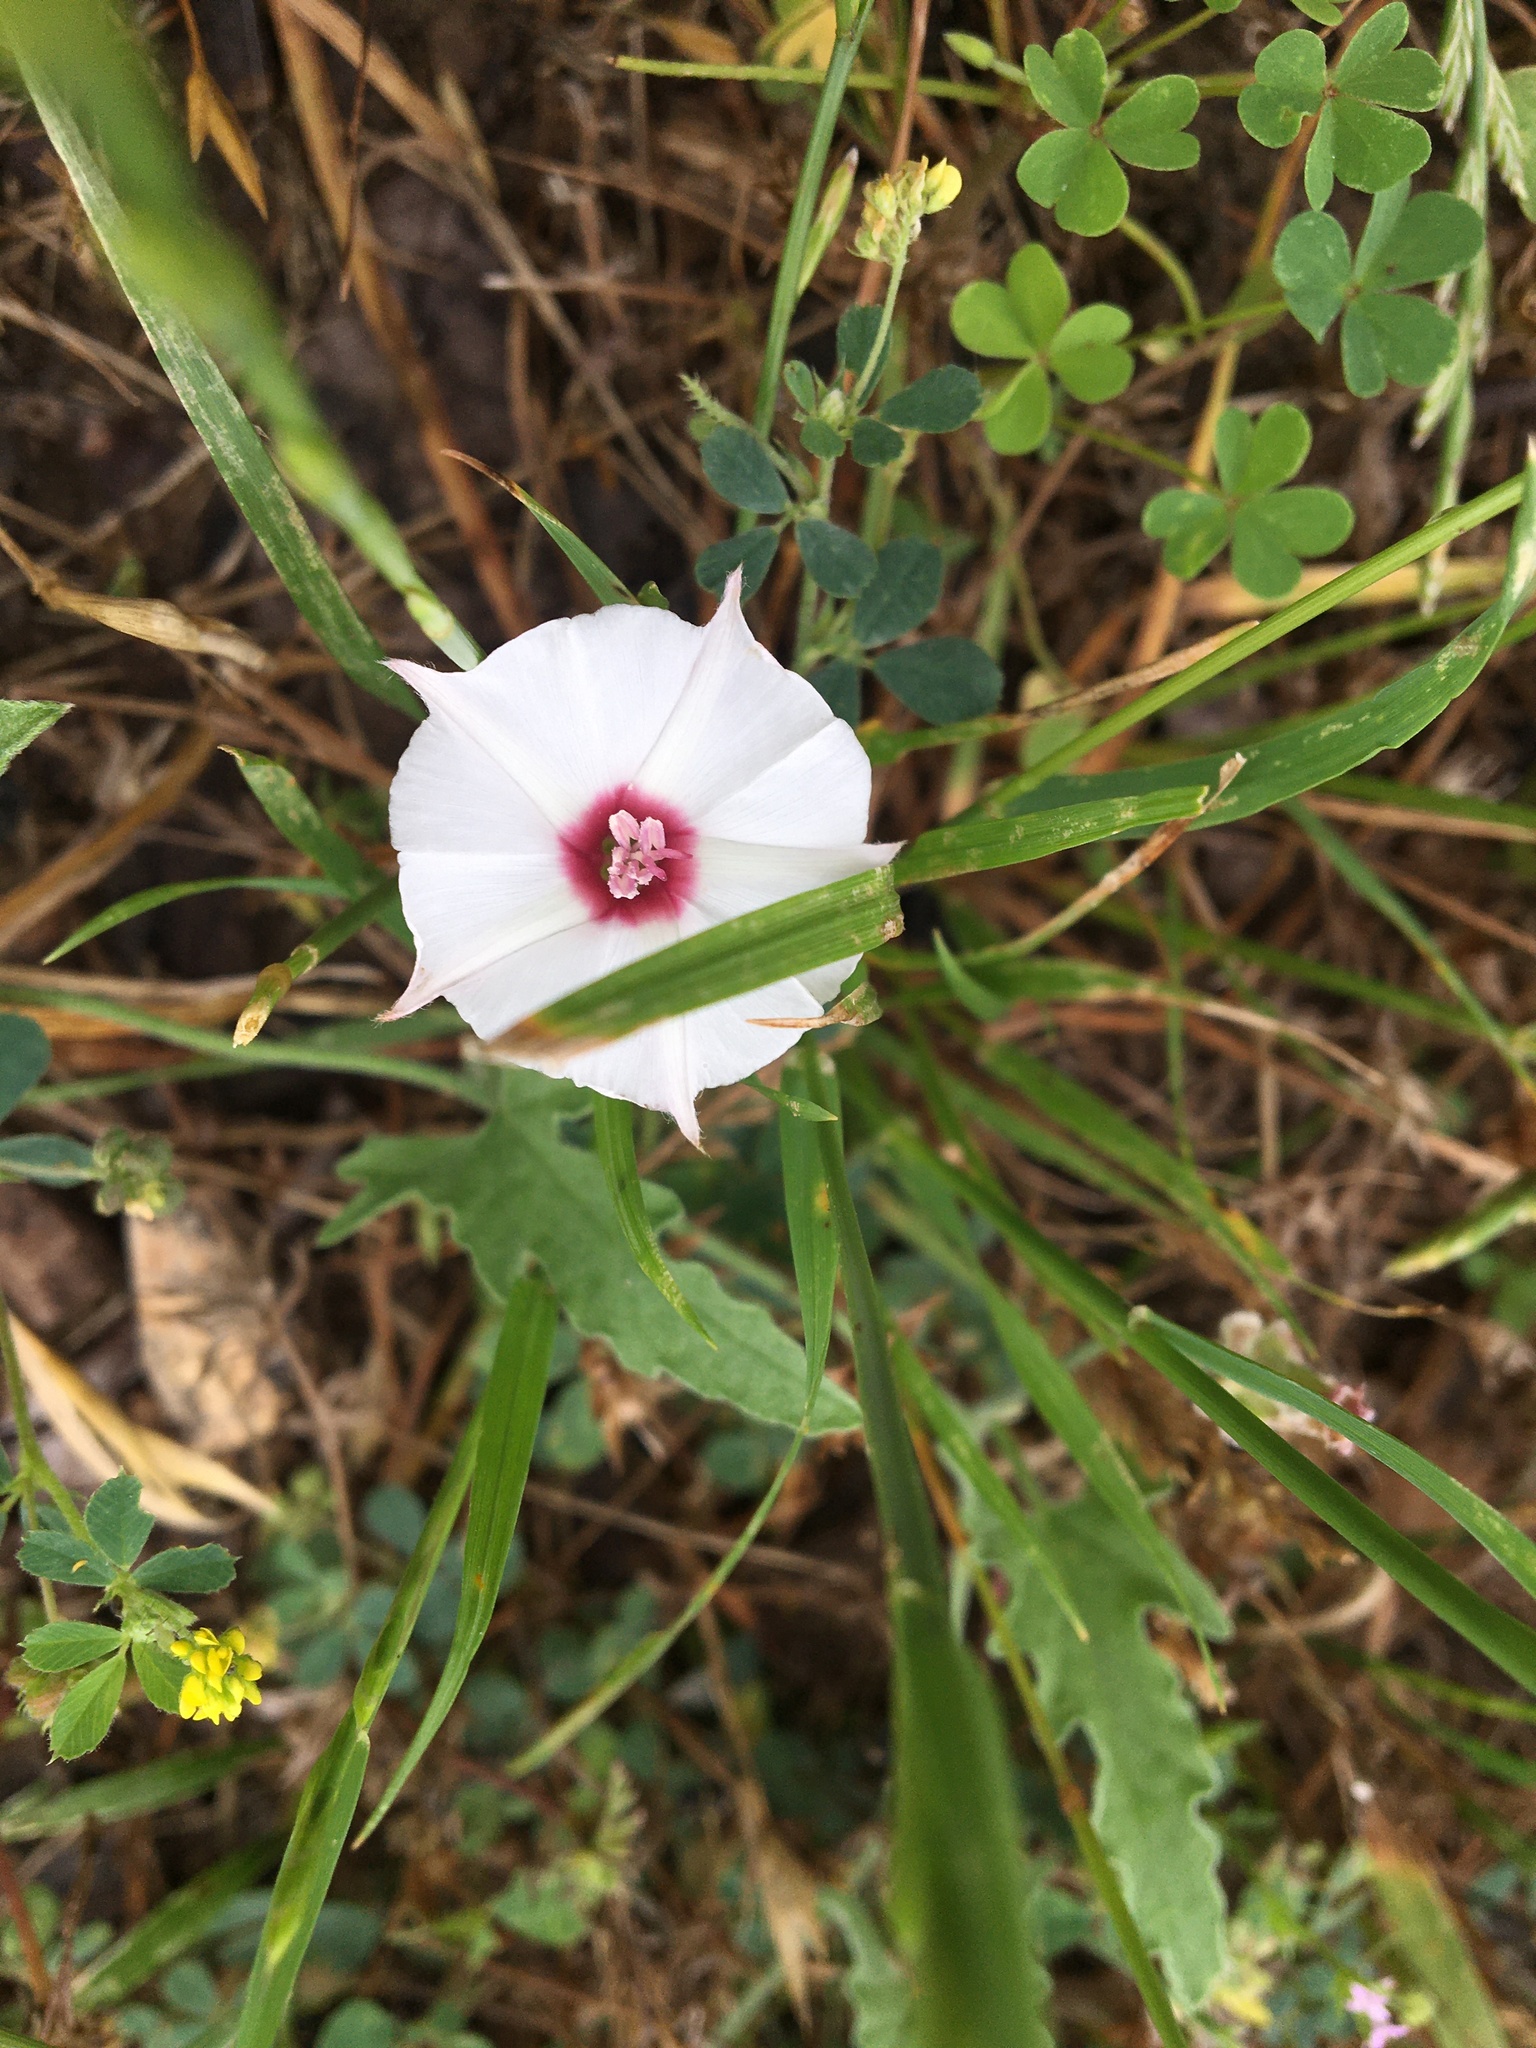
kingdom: Plantae
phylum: Tracheophyta
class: Magnoliopsida
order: Solanales
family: Convolvulaceae
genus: Convolvulus
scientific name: Convolvulus equitans
